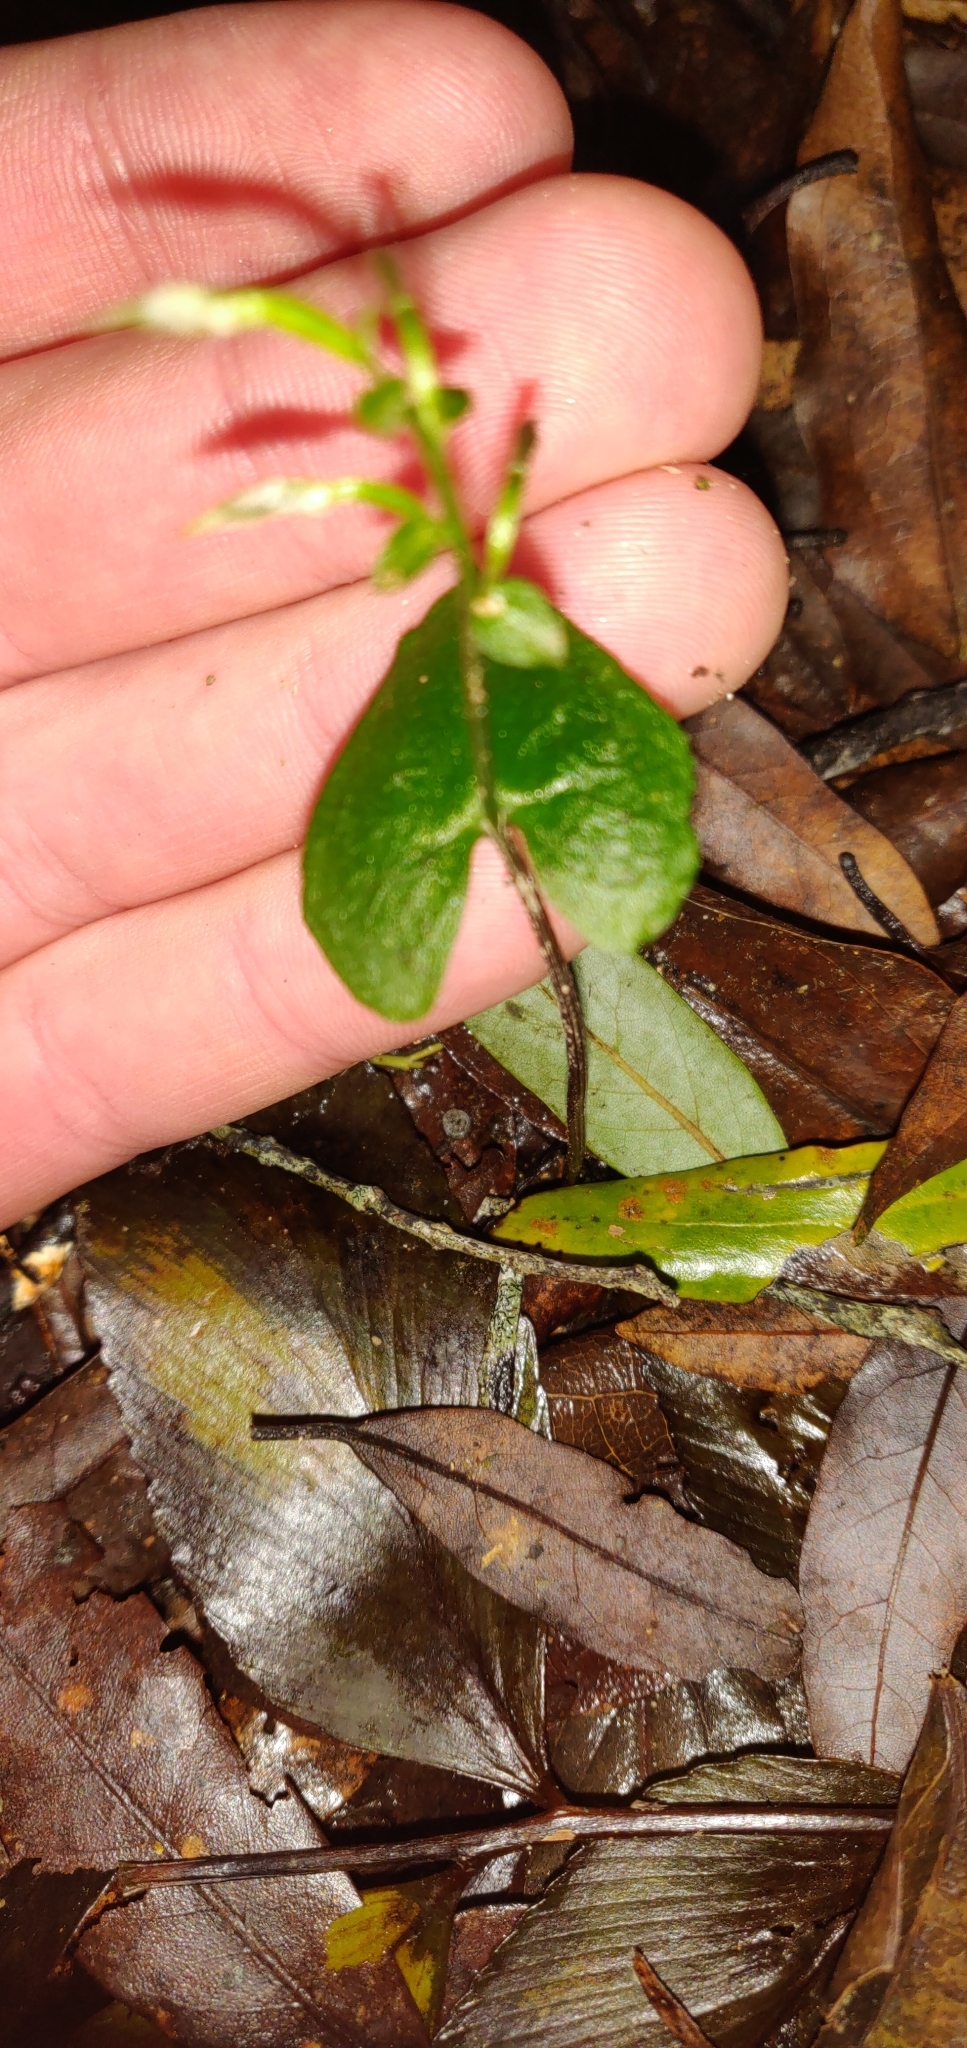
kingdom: Plantae
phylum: Tracheophyta
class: Liliopsida
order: Asparagales
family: Orchidaceae
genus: Acianthus
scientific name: Acianthus sinclairii
